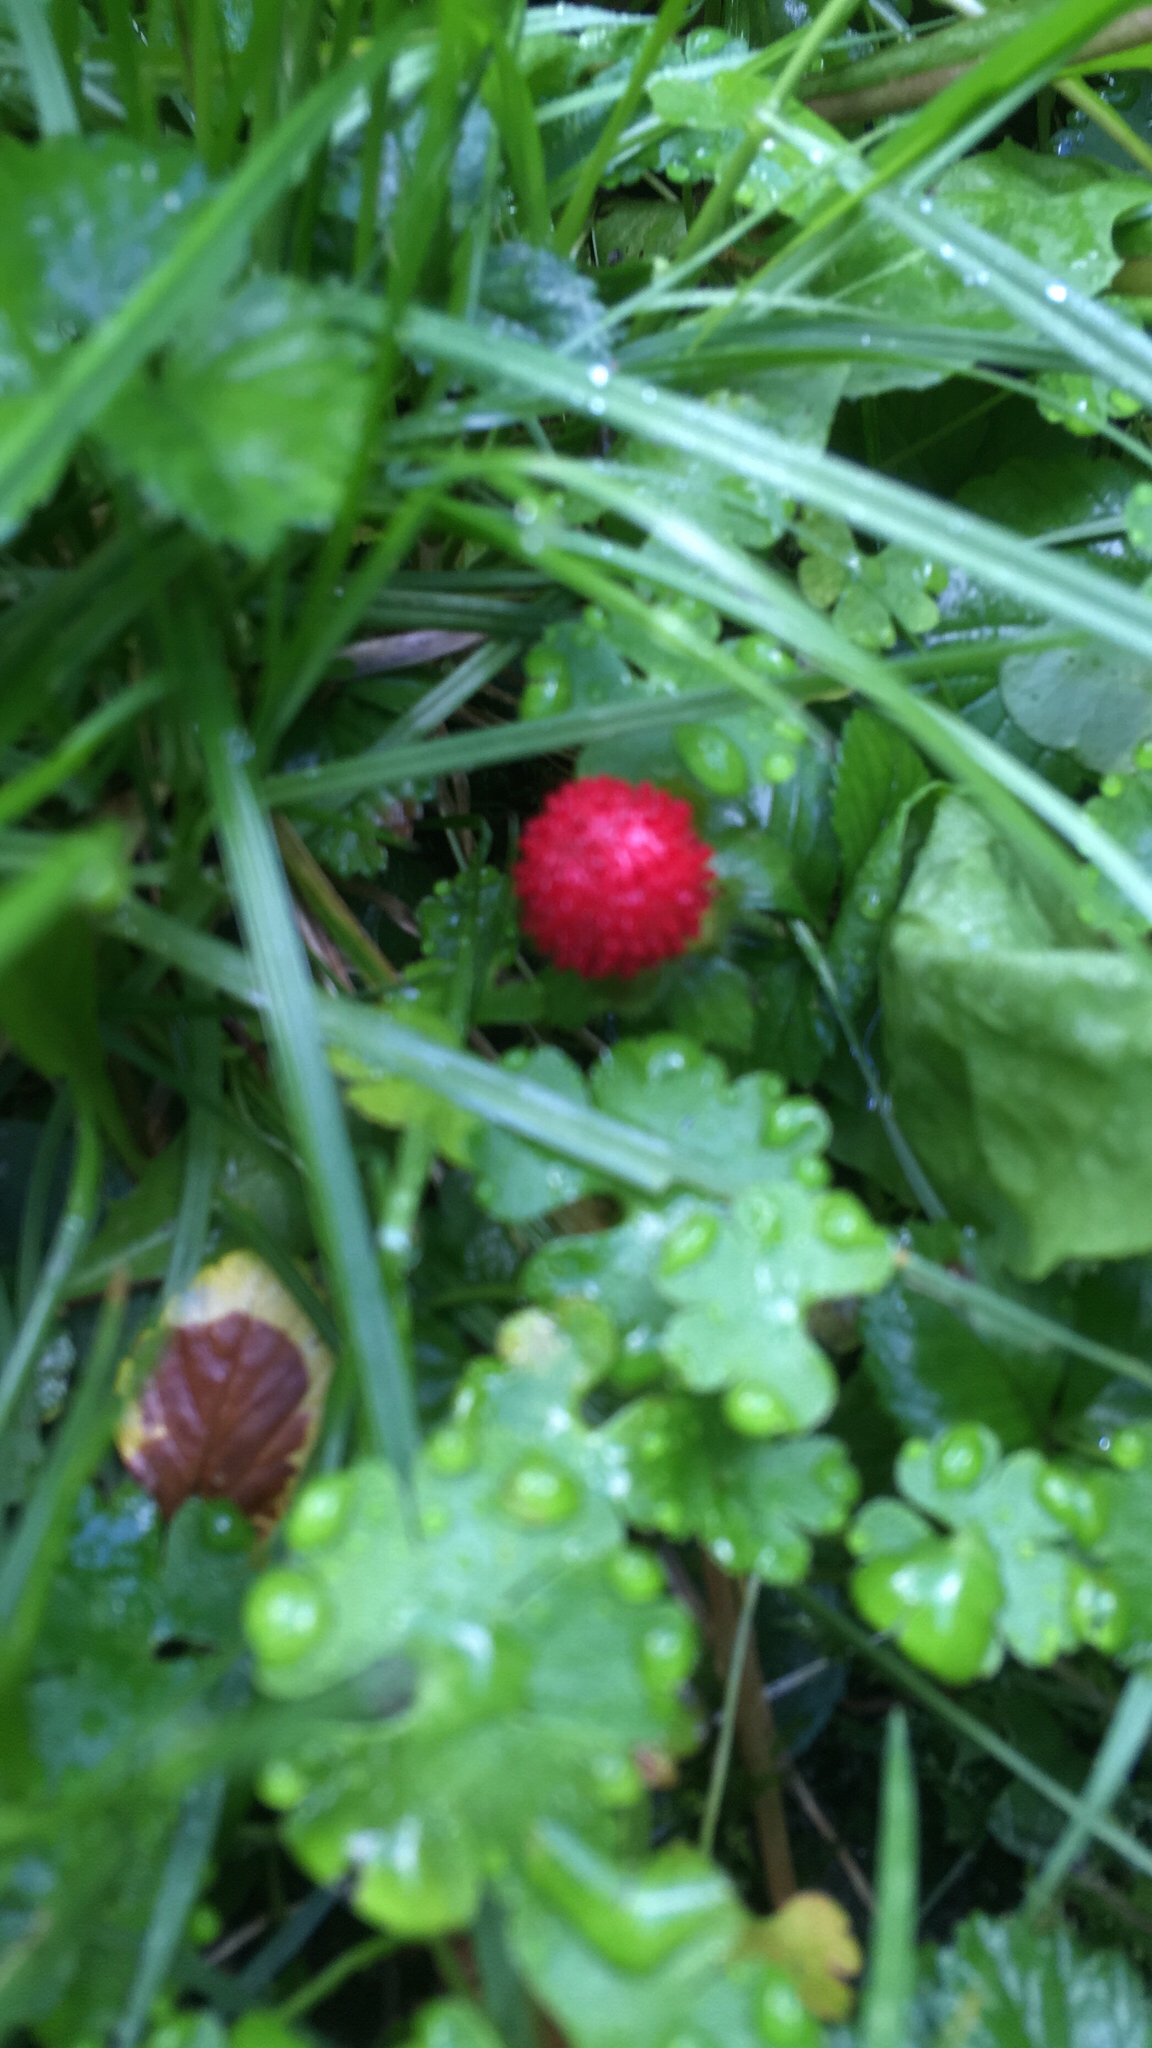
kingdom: Plantae
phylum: Tracheophyta
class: Magnoliopsida
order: Rosales
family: Rosaceae
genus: Potentilla
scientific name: Potentilla indica
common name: Yellow-flowered strawberry
